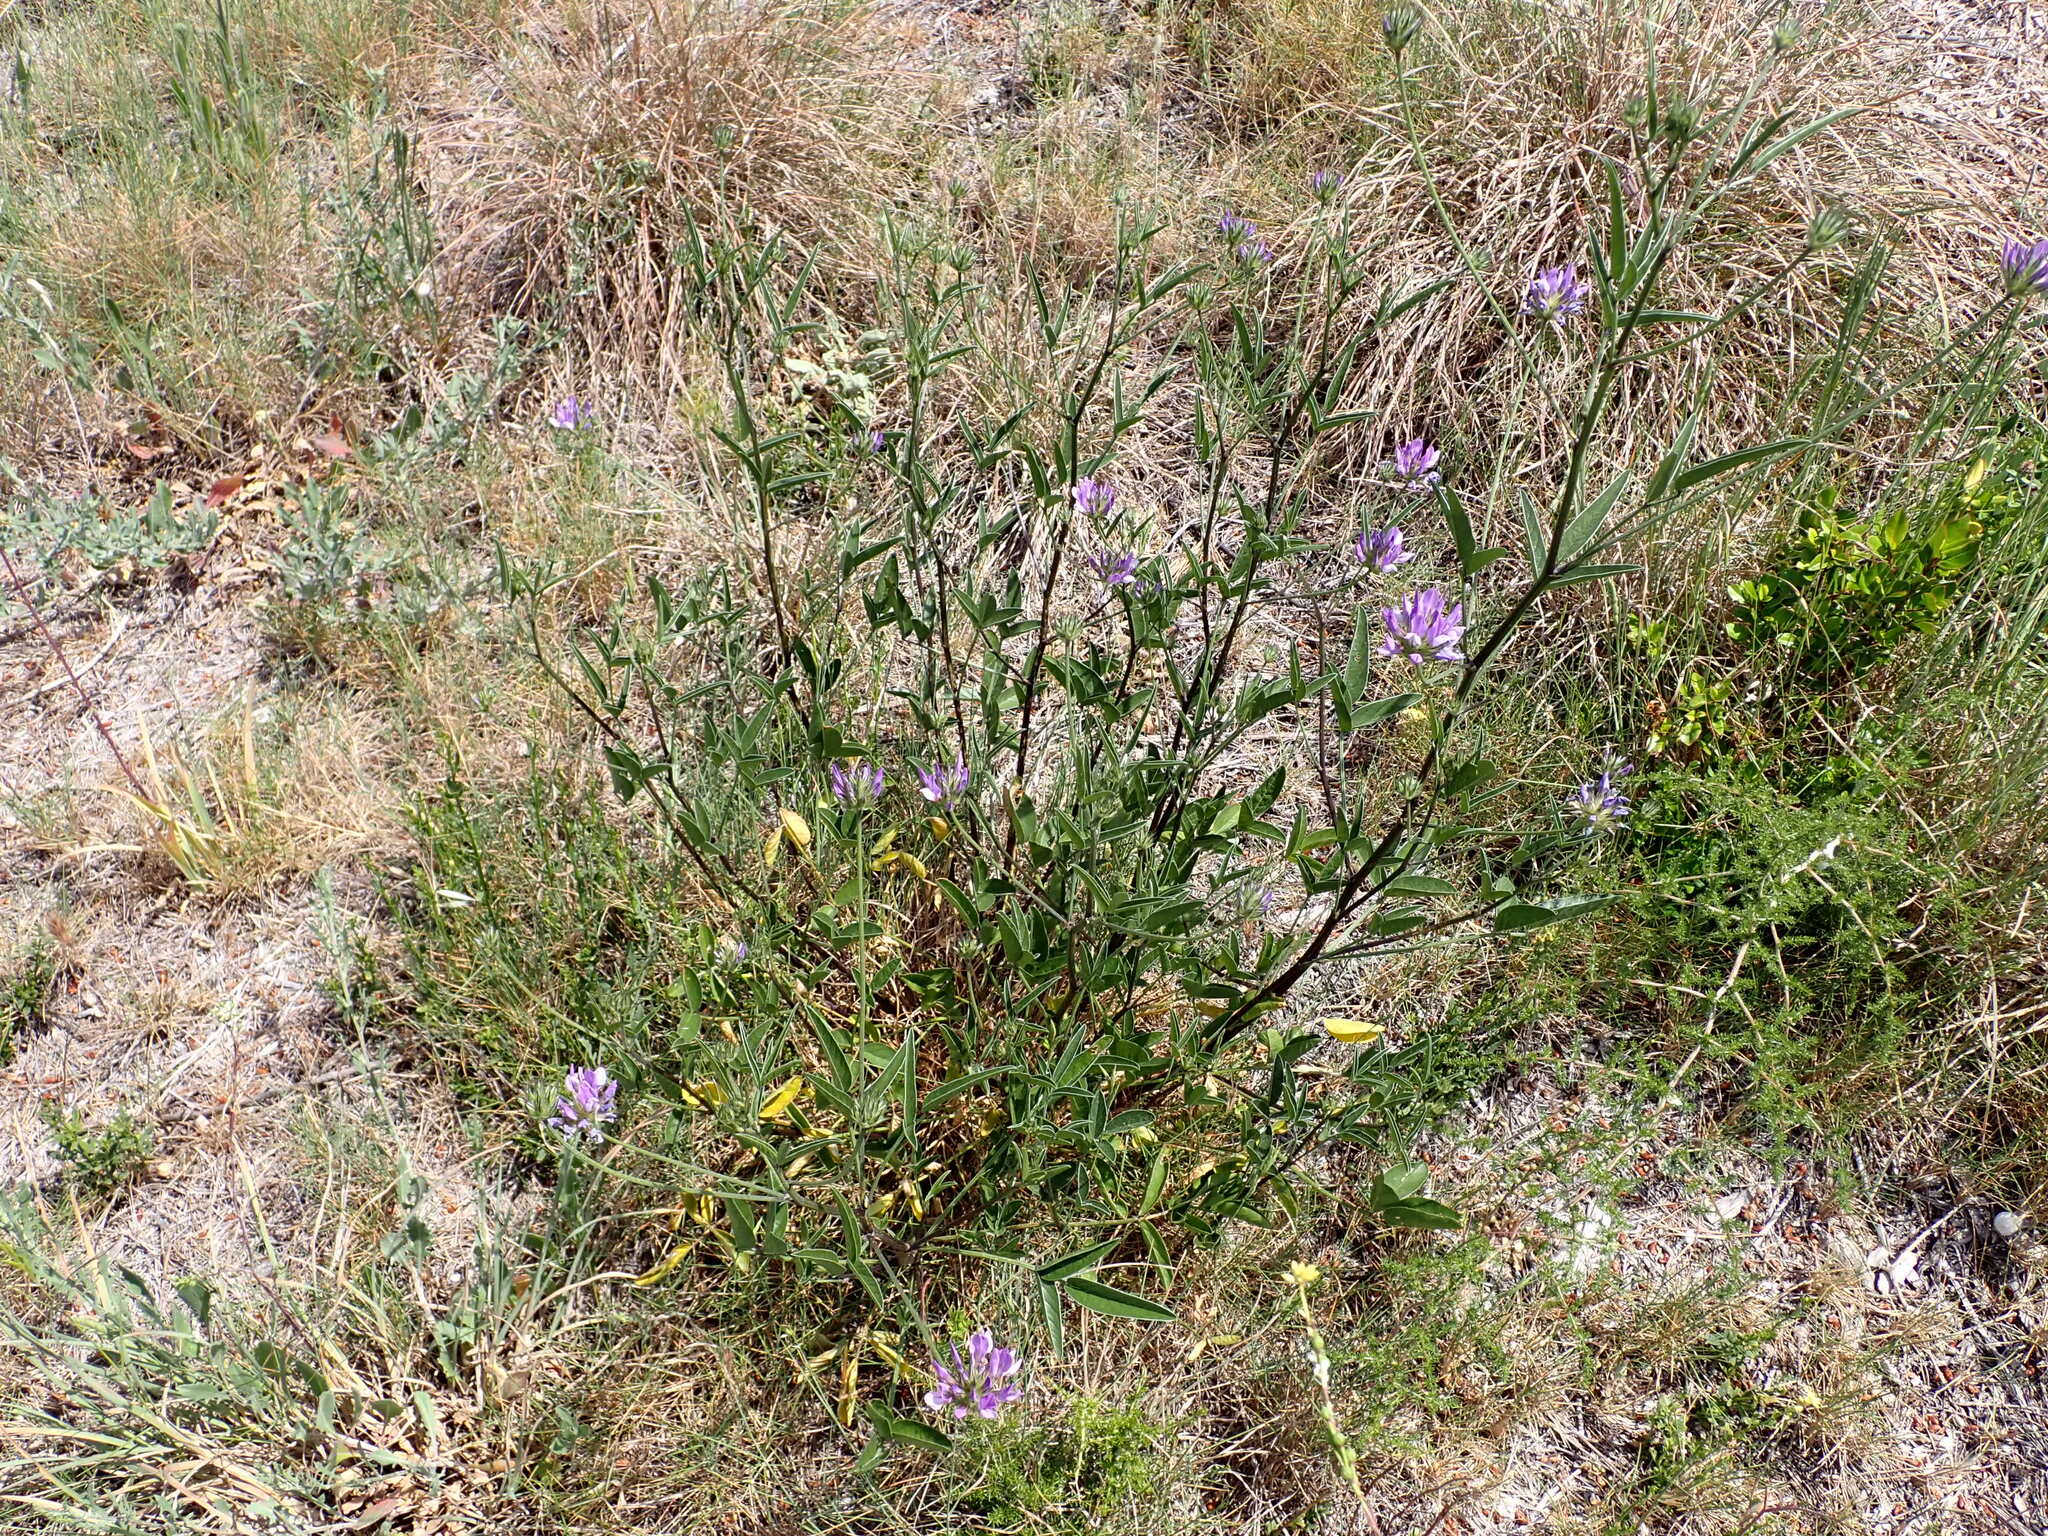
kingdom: Plantae
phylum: Tracheophyta
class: Magnoliopsida
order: Fabales
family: Fabaceae
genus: Bituminaria
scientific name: Bituminaria bituminosa
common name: Arabian pea
